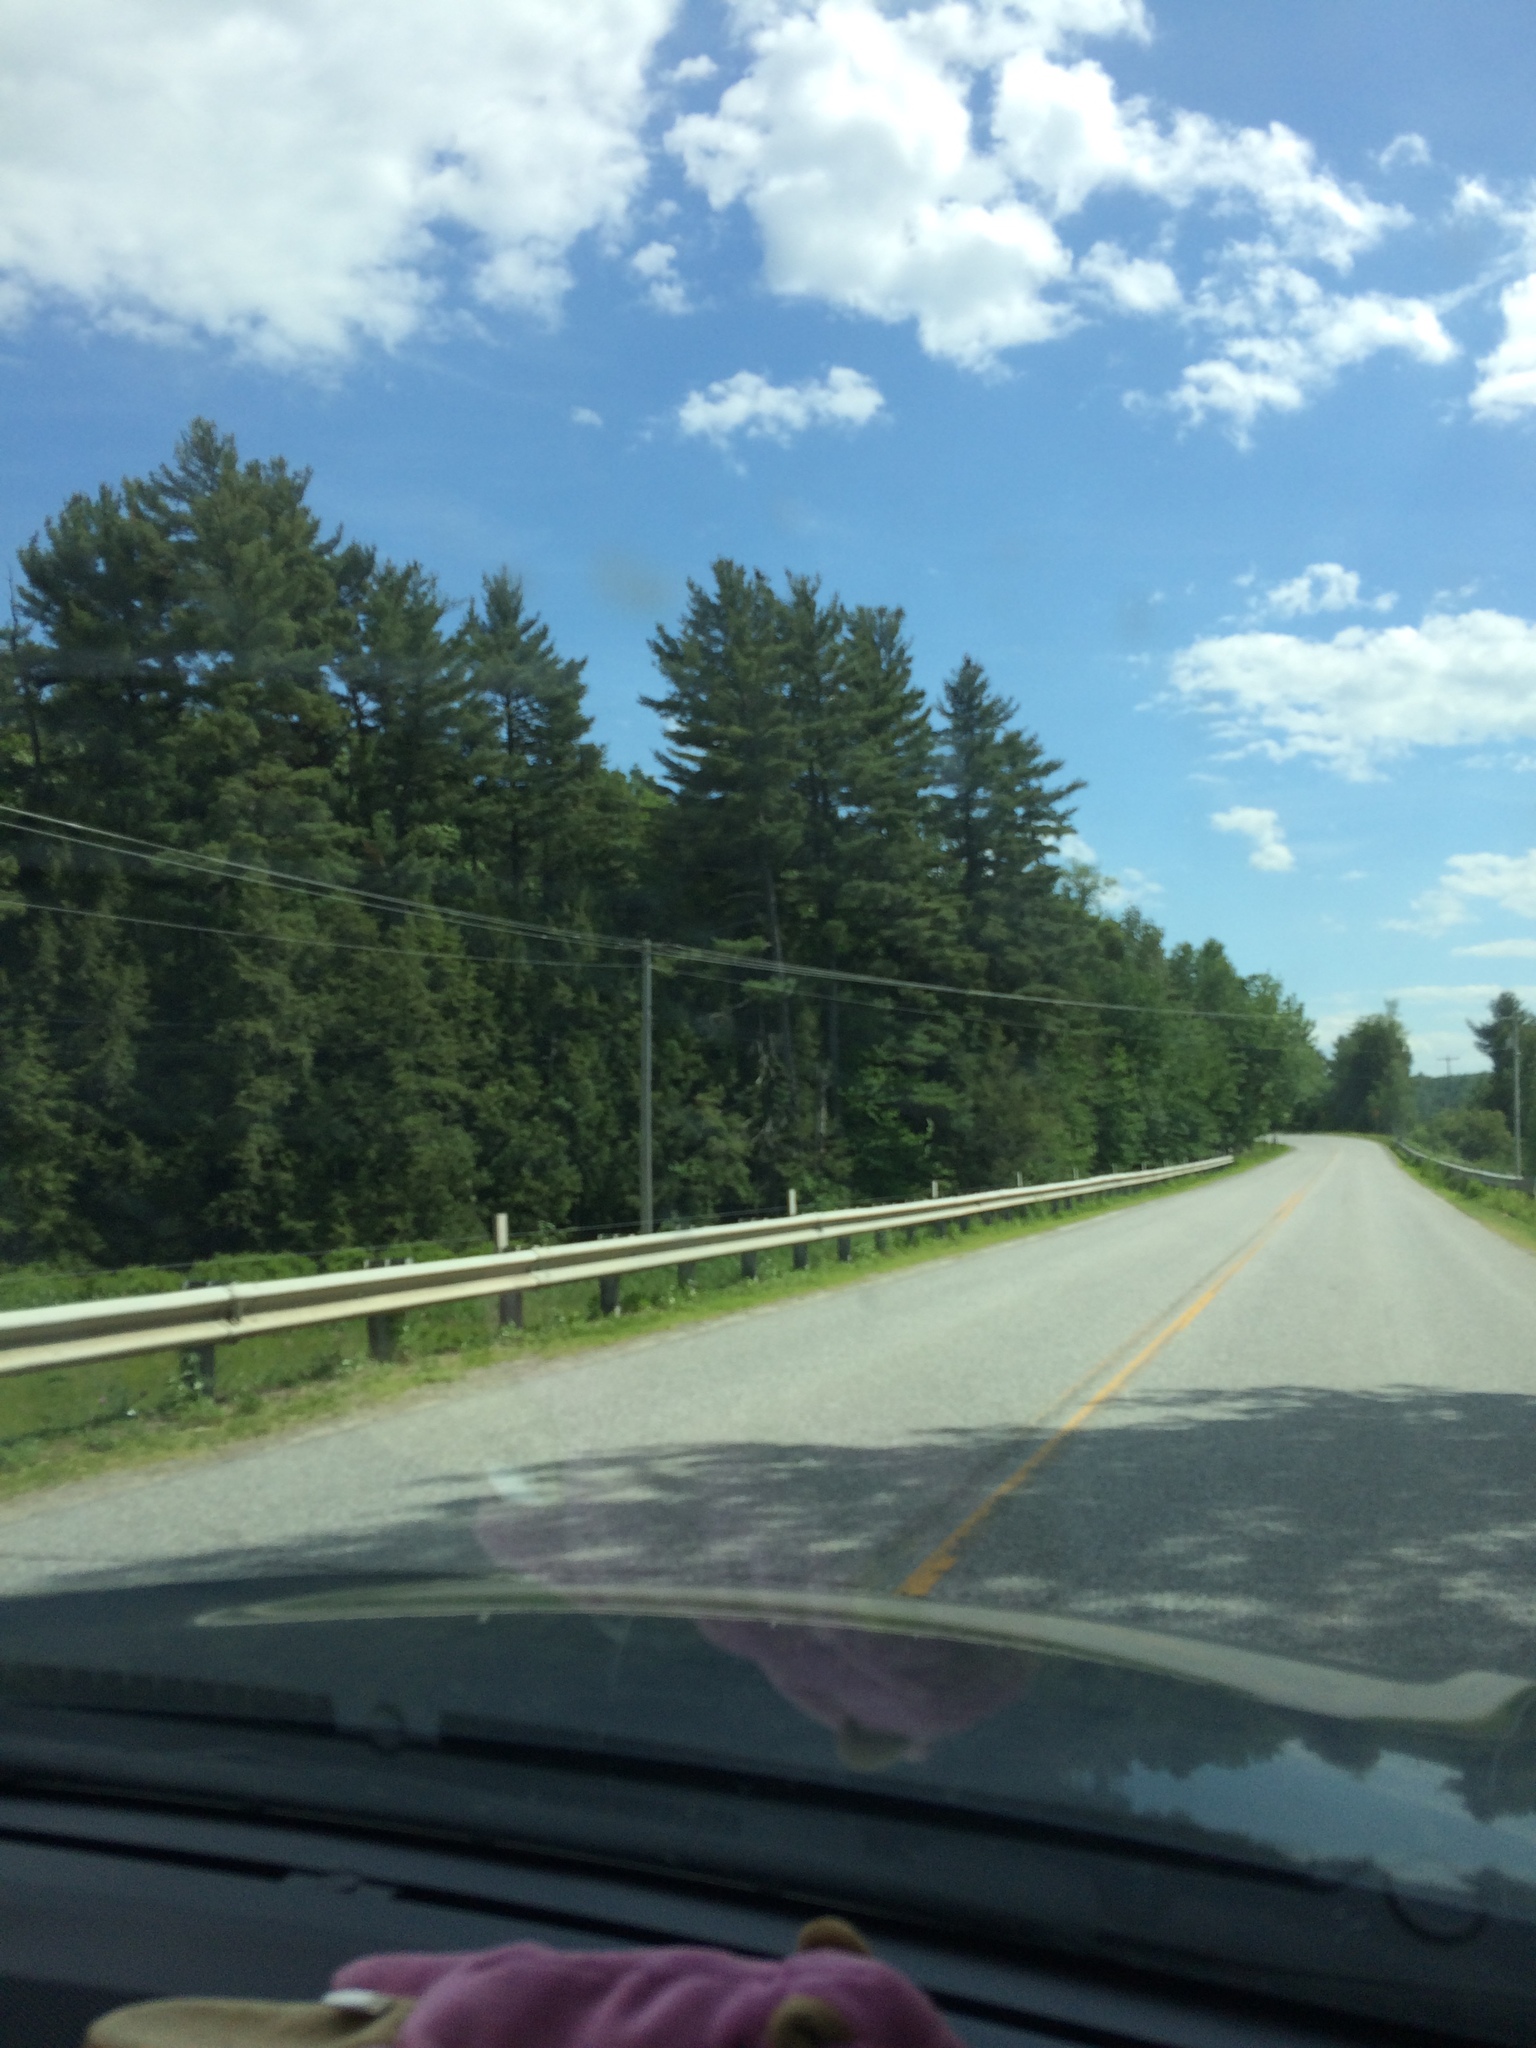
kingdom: Plantae
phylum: Tracheophyta
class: Pinopsida
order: Pinales
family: Pinaceae
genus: Pinus
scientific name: Pinus strobus
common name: Weymouth pine
